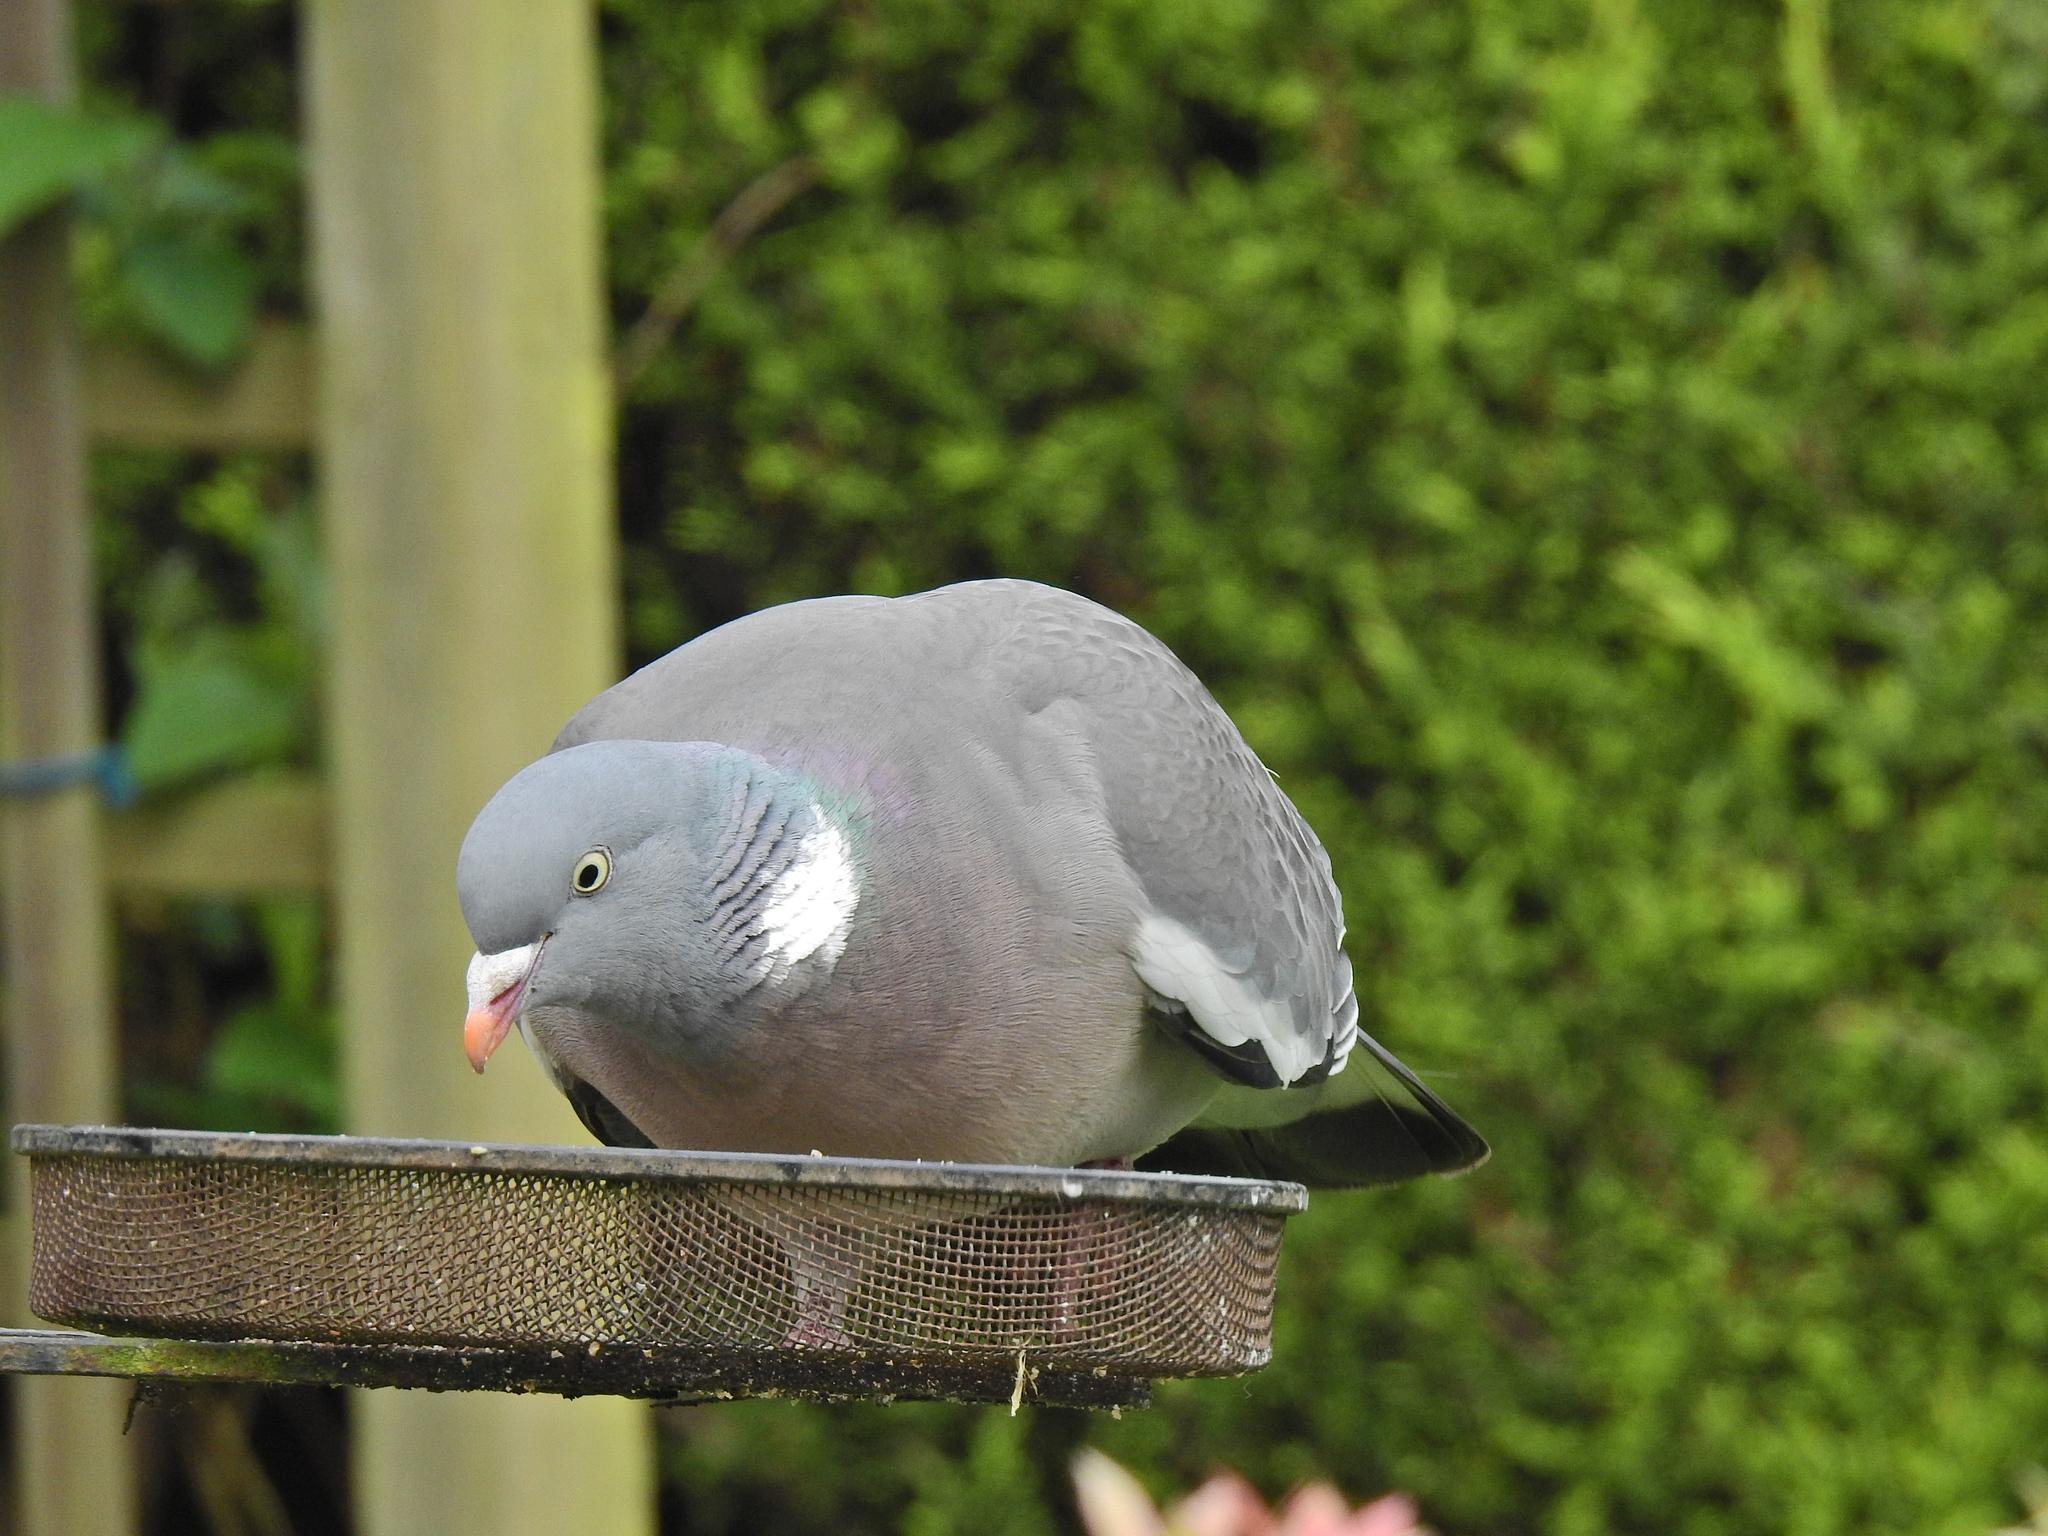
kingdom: Animalia
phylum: Chordata
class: Aves
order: Columbiformes
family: Columbidae
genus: Columba
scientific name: Columba palumbus
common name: Common wood pigeon
